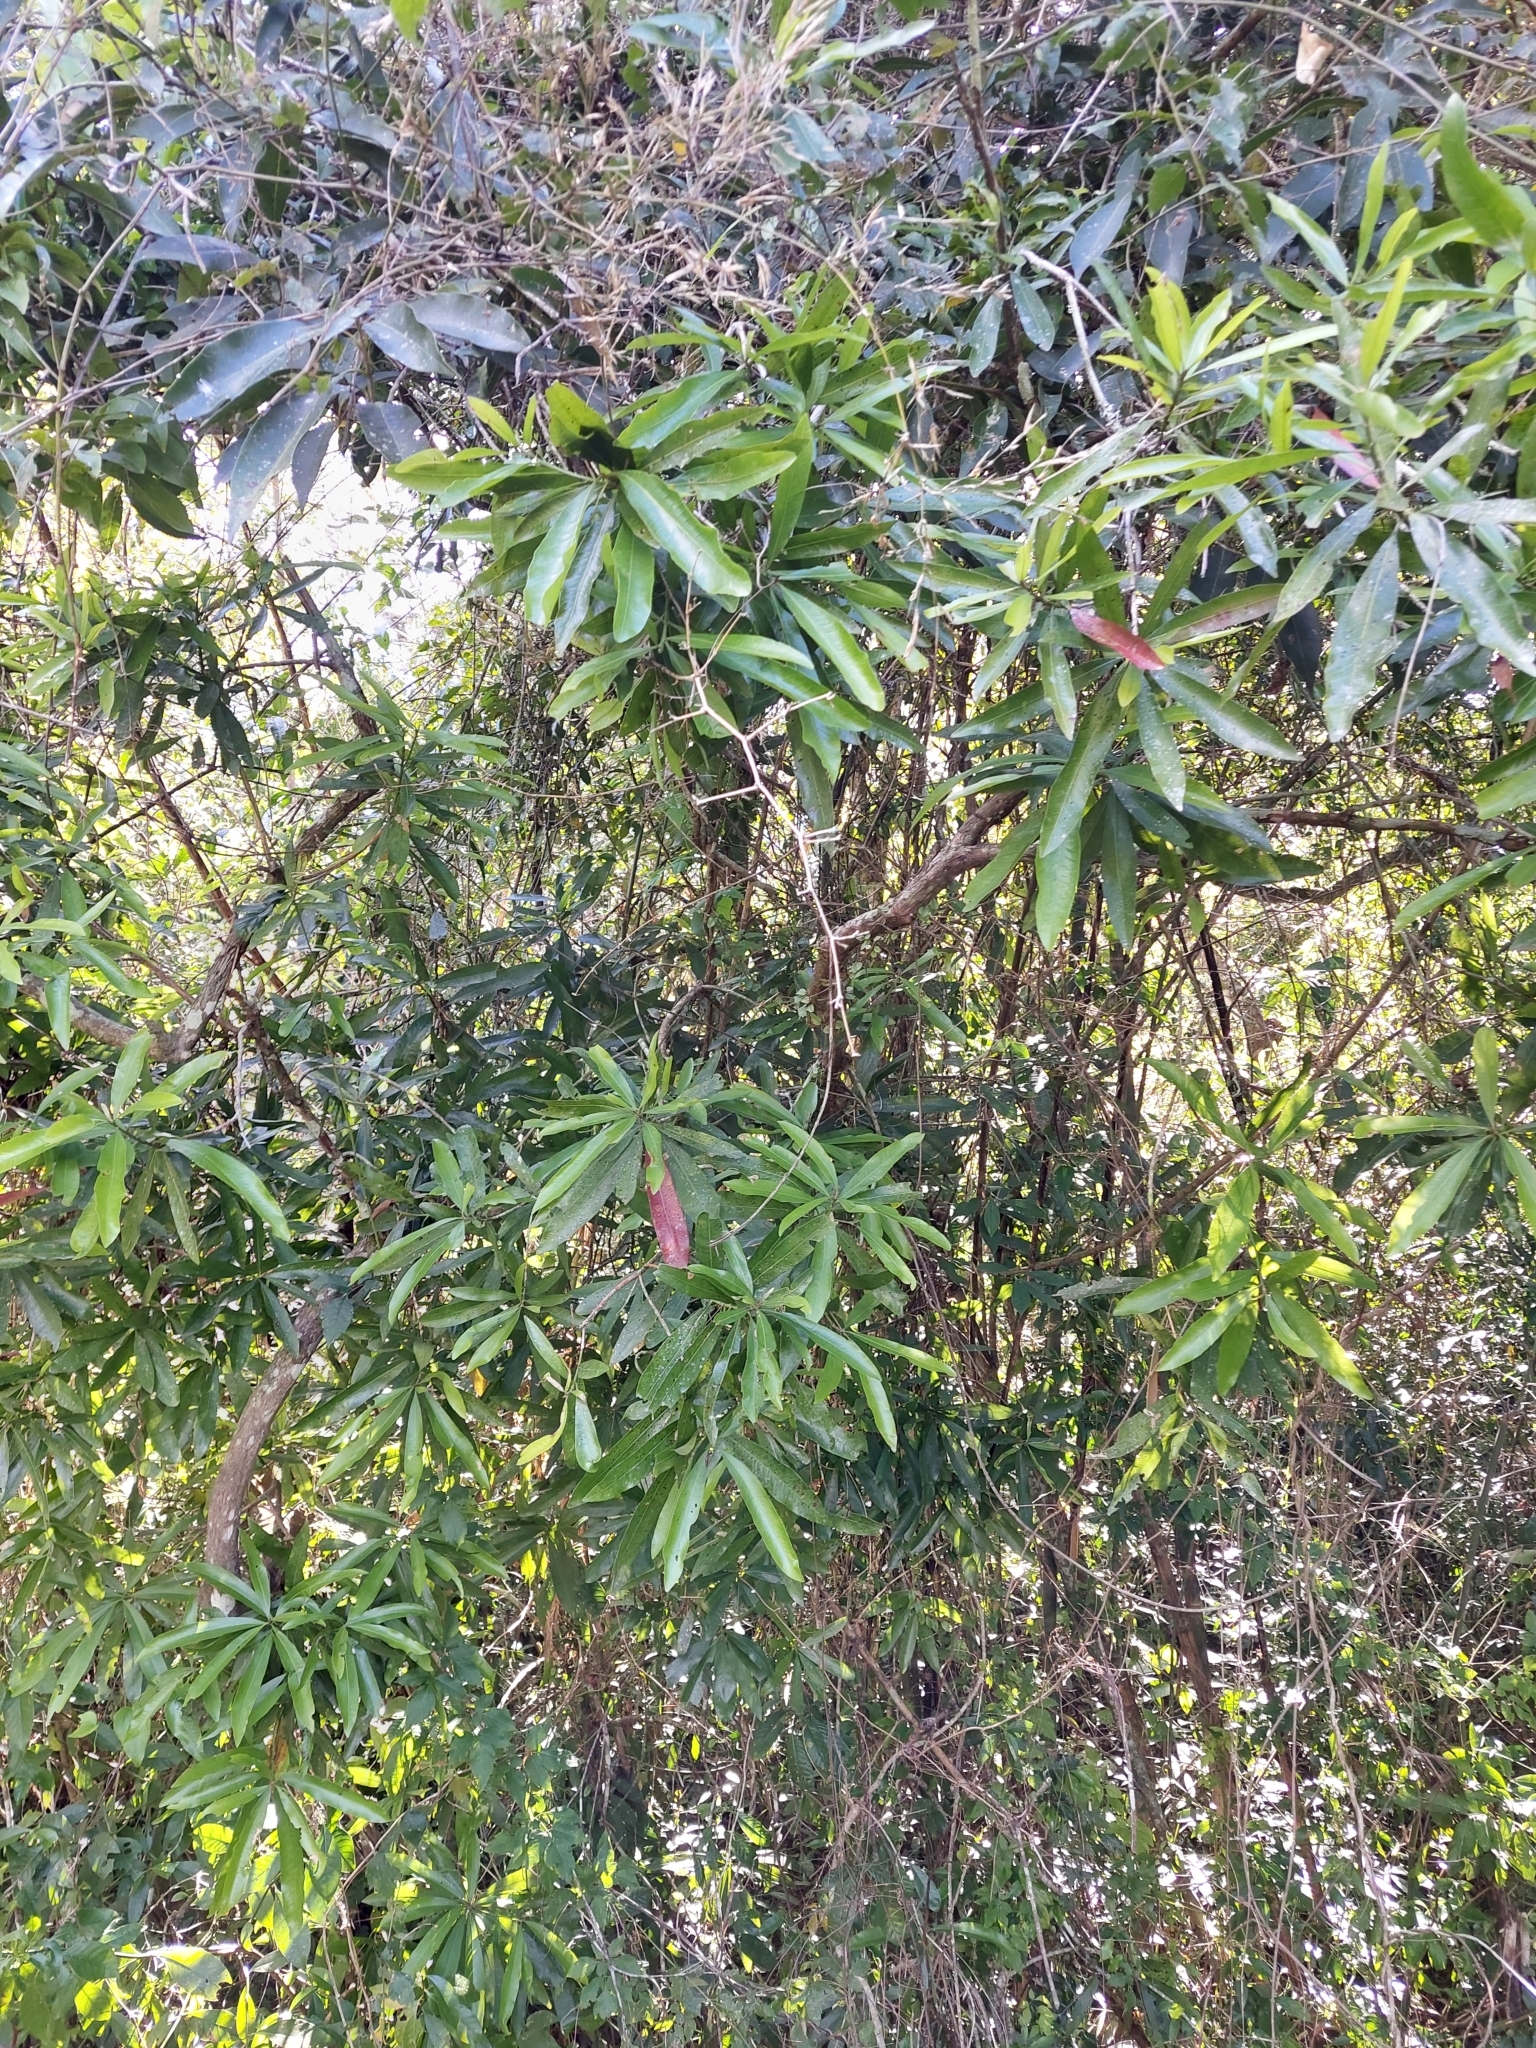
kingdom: Plantae
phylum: Tracheophyta
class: Magnoliopsida
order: Ericales
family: Sapotaceae
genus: Pouteria
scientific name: Pouteria gardneriana
